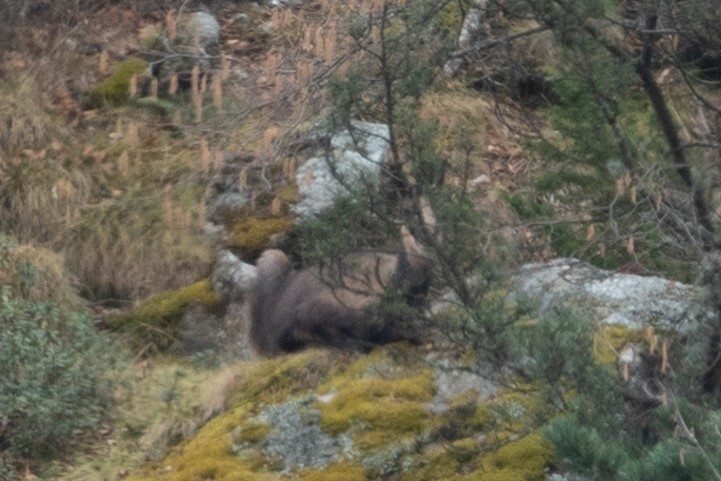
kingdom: Animalia
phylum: Chordata
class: Mammalia
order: Artiodactyla
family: Bovidae
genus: Rupicapra
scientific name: Rupicapra pyrenaica
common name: Pyrenean chamois
